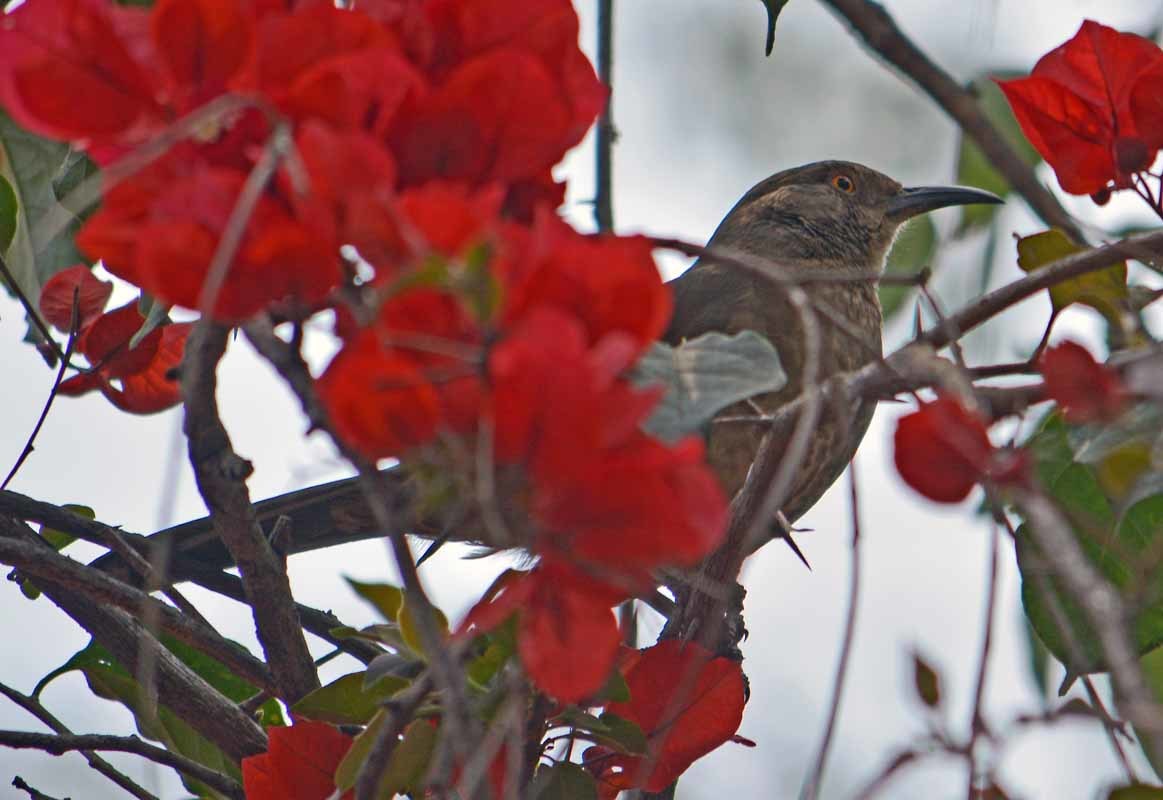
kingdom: Animalia
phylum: Chordata
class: Aves
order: Passeriformes
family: Mimidae
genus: Toxostoma
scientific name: Toxostoma curvirostre
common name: Curve-billed thrasher
